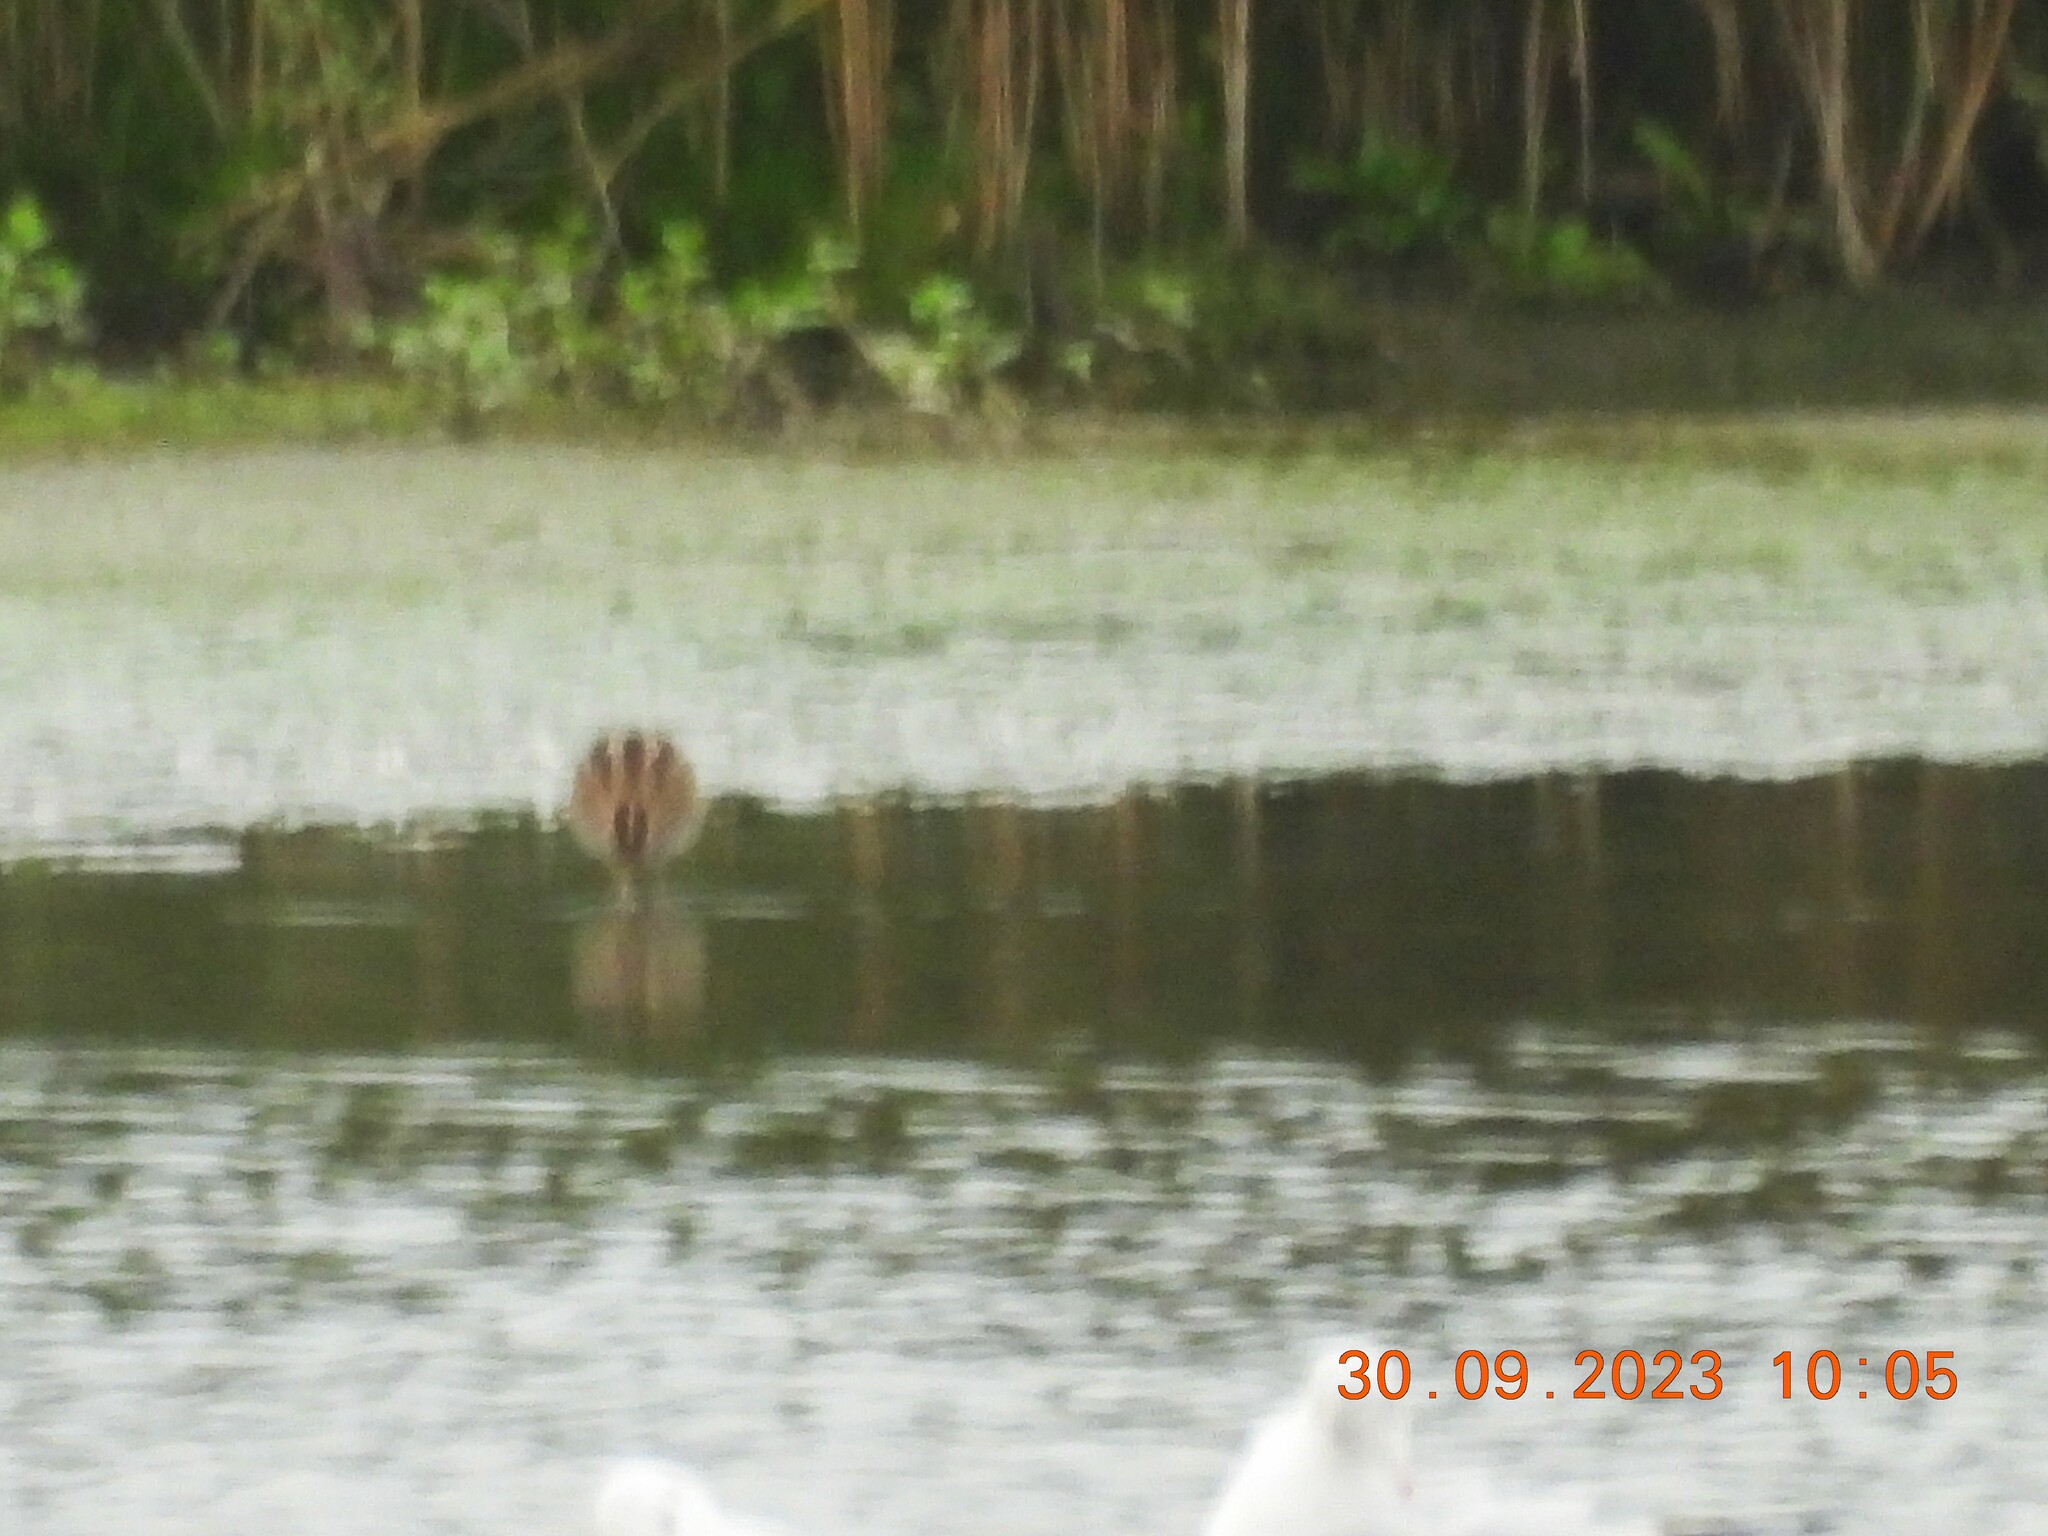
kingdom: Animalia
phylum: Chordata
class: Aves
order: Charadriiformes
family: Scolopacidae
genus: Gallinago
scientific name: Gallinago gallinago
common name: Common snipe
